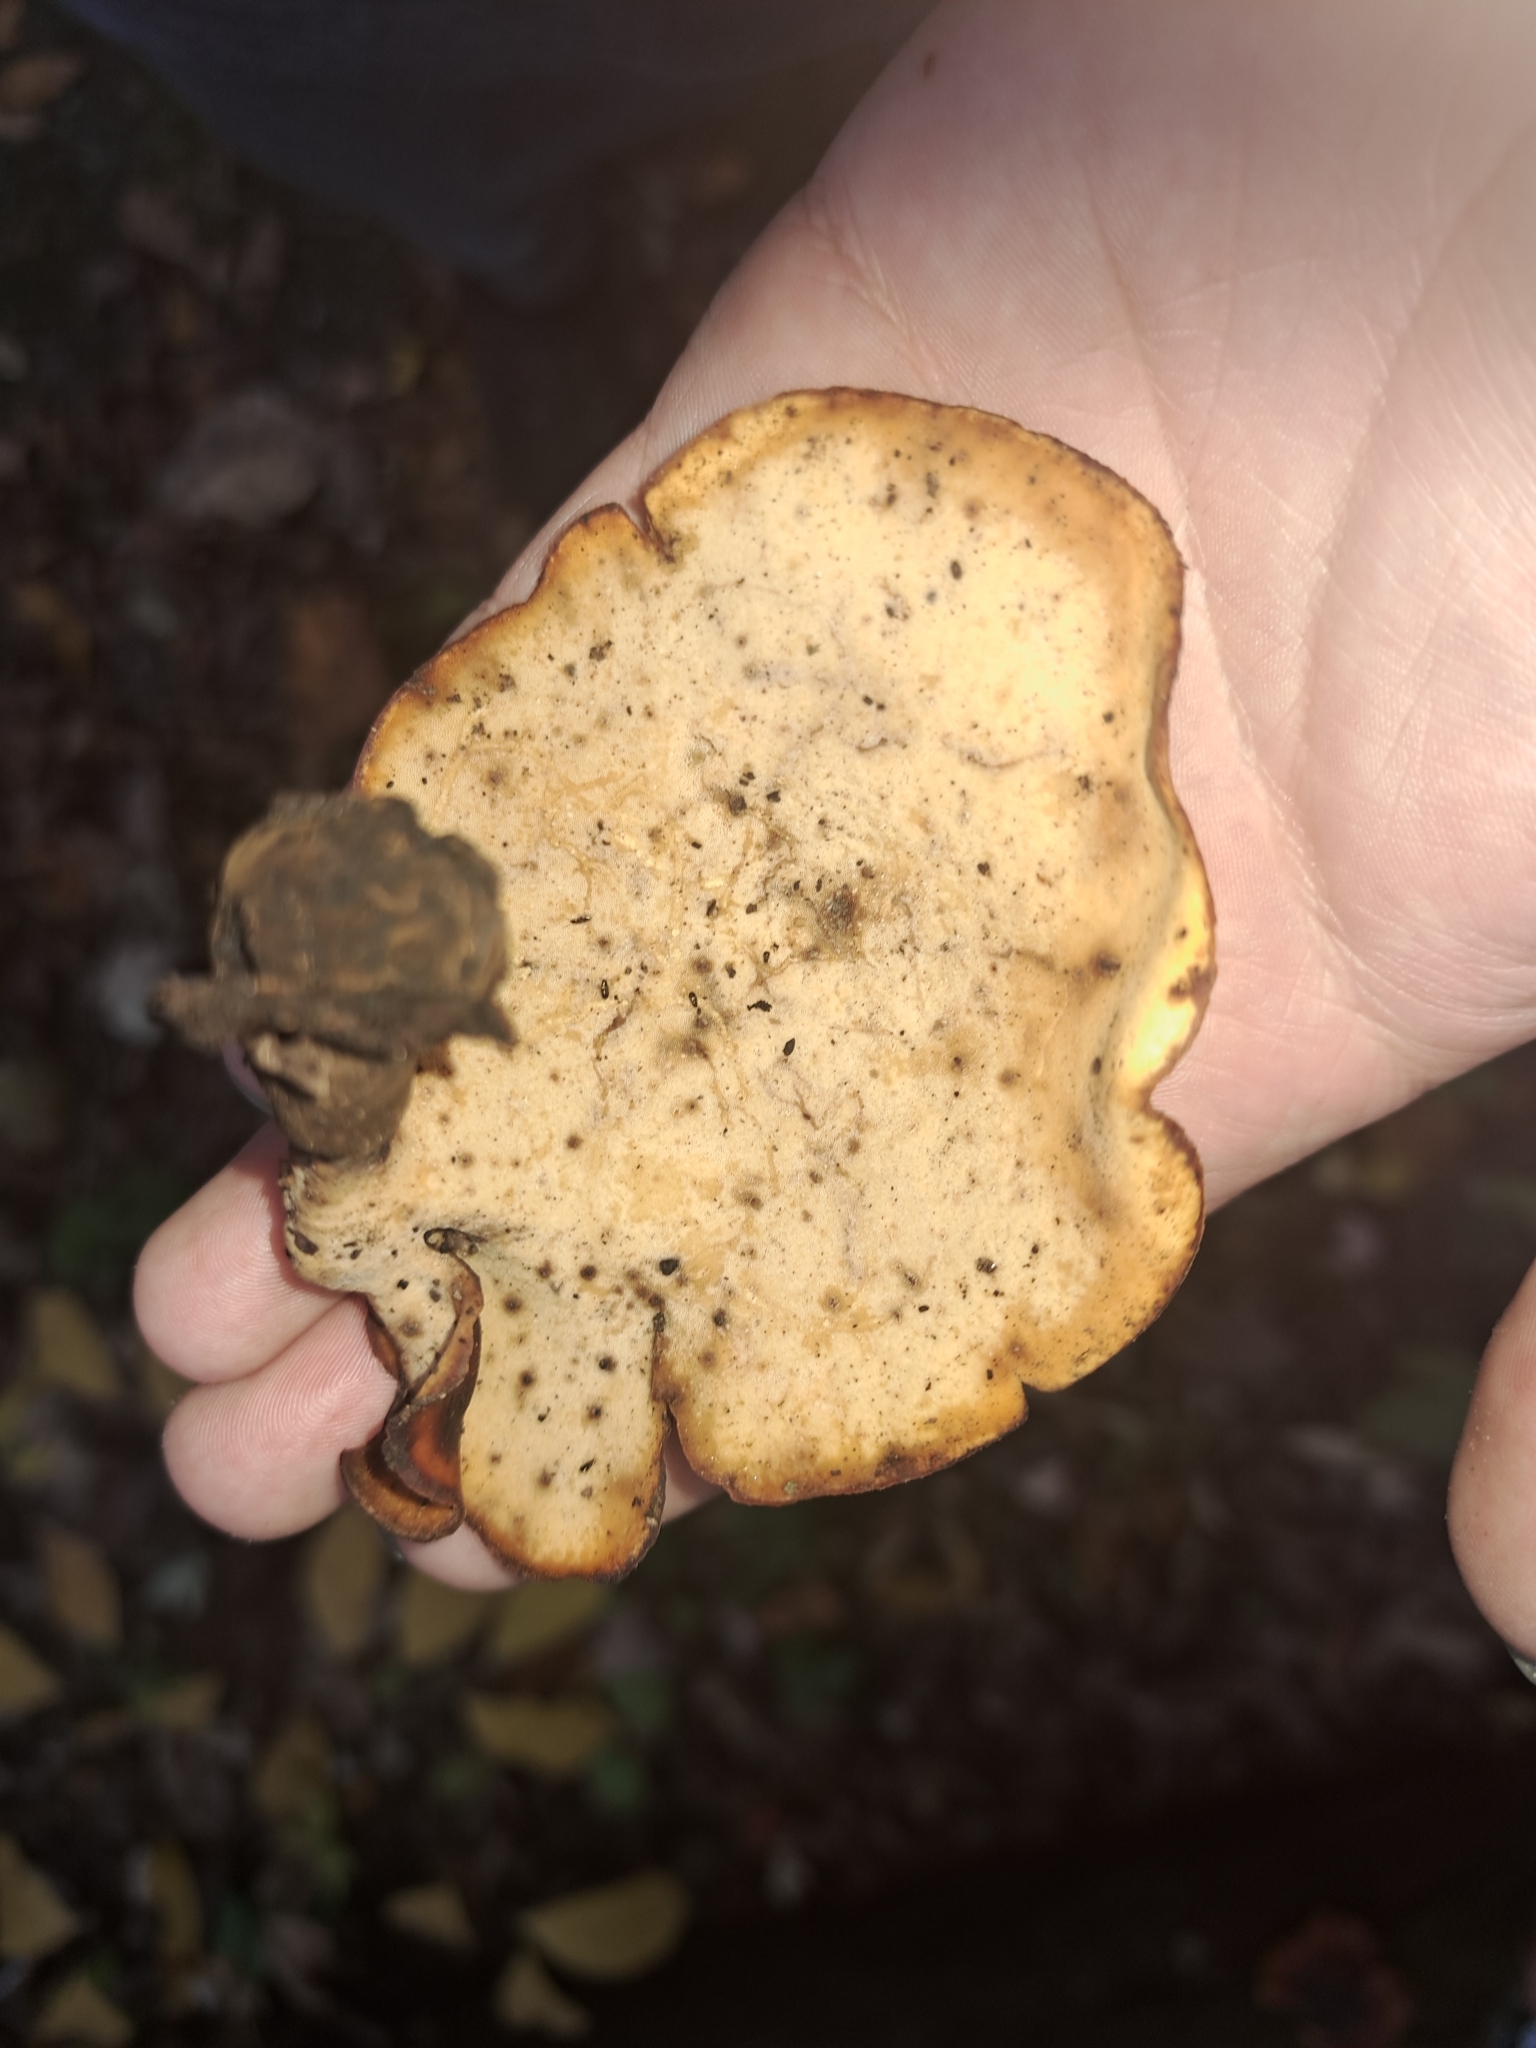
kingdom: Fungi
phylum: Basidiomycota
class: Agaricomycetes
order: Polyporales
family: Polyporaceae
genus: Picipes
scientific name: Picipes badius
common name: Bay polypore
